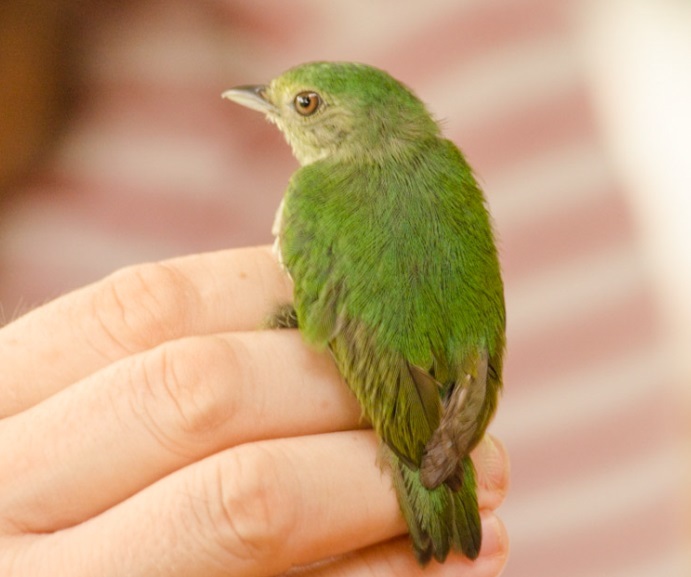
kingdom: Animalia
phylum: Chordata
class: Aves
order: Passeriformes
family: Pipridae
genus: Lepidothrix
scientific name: Lepidothrix coronata
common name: Blue-crowned manakin
